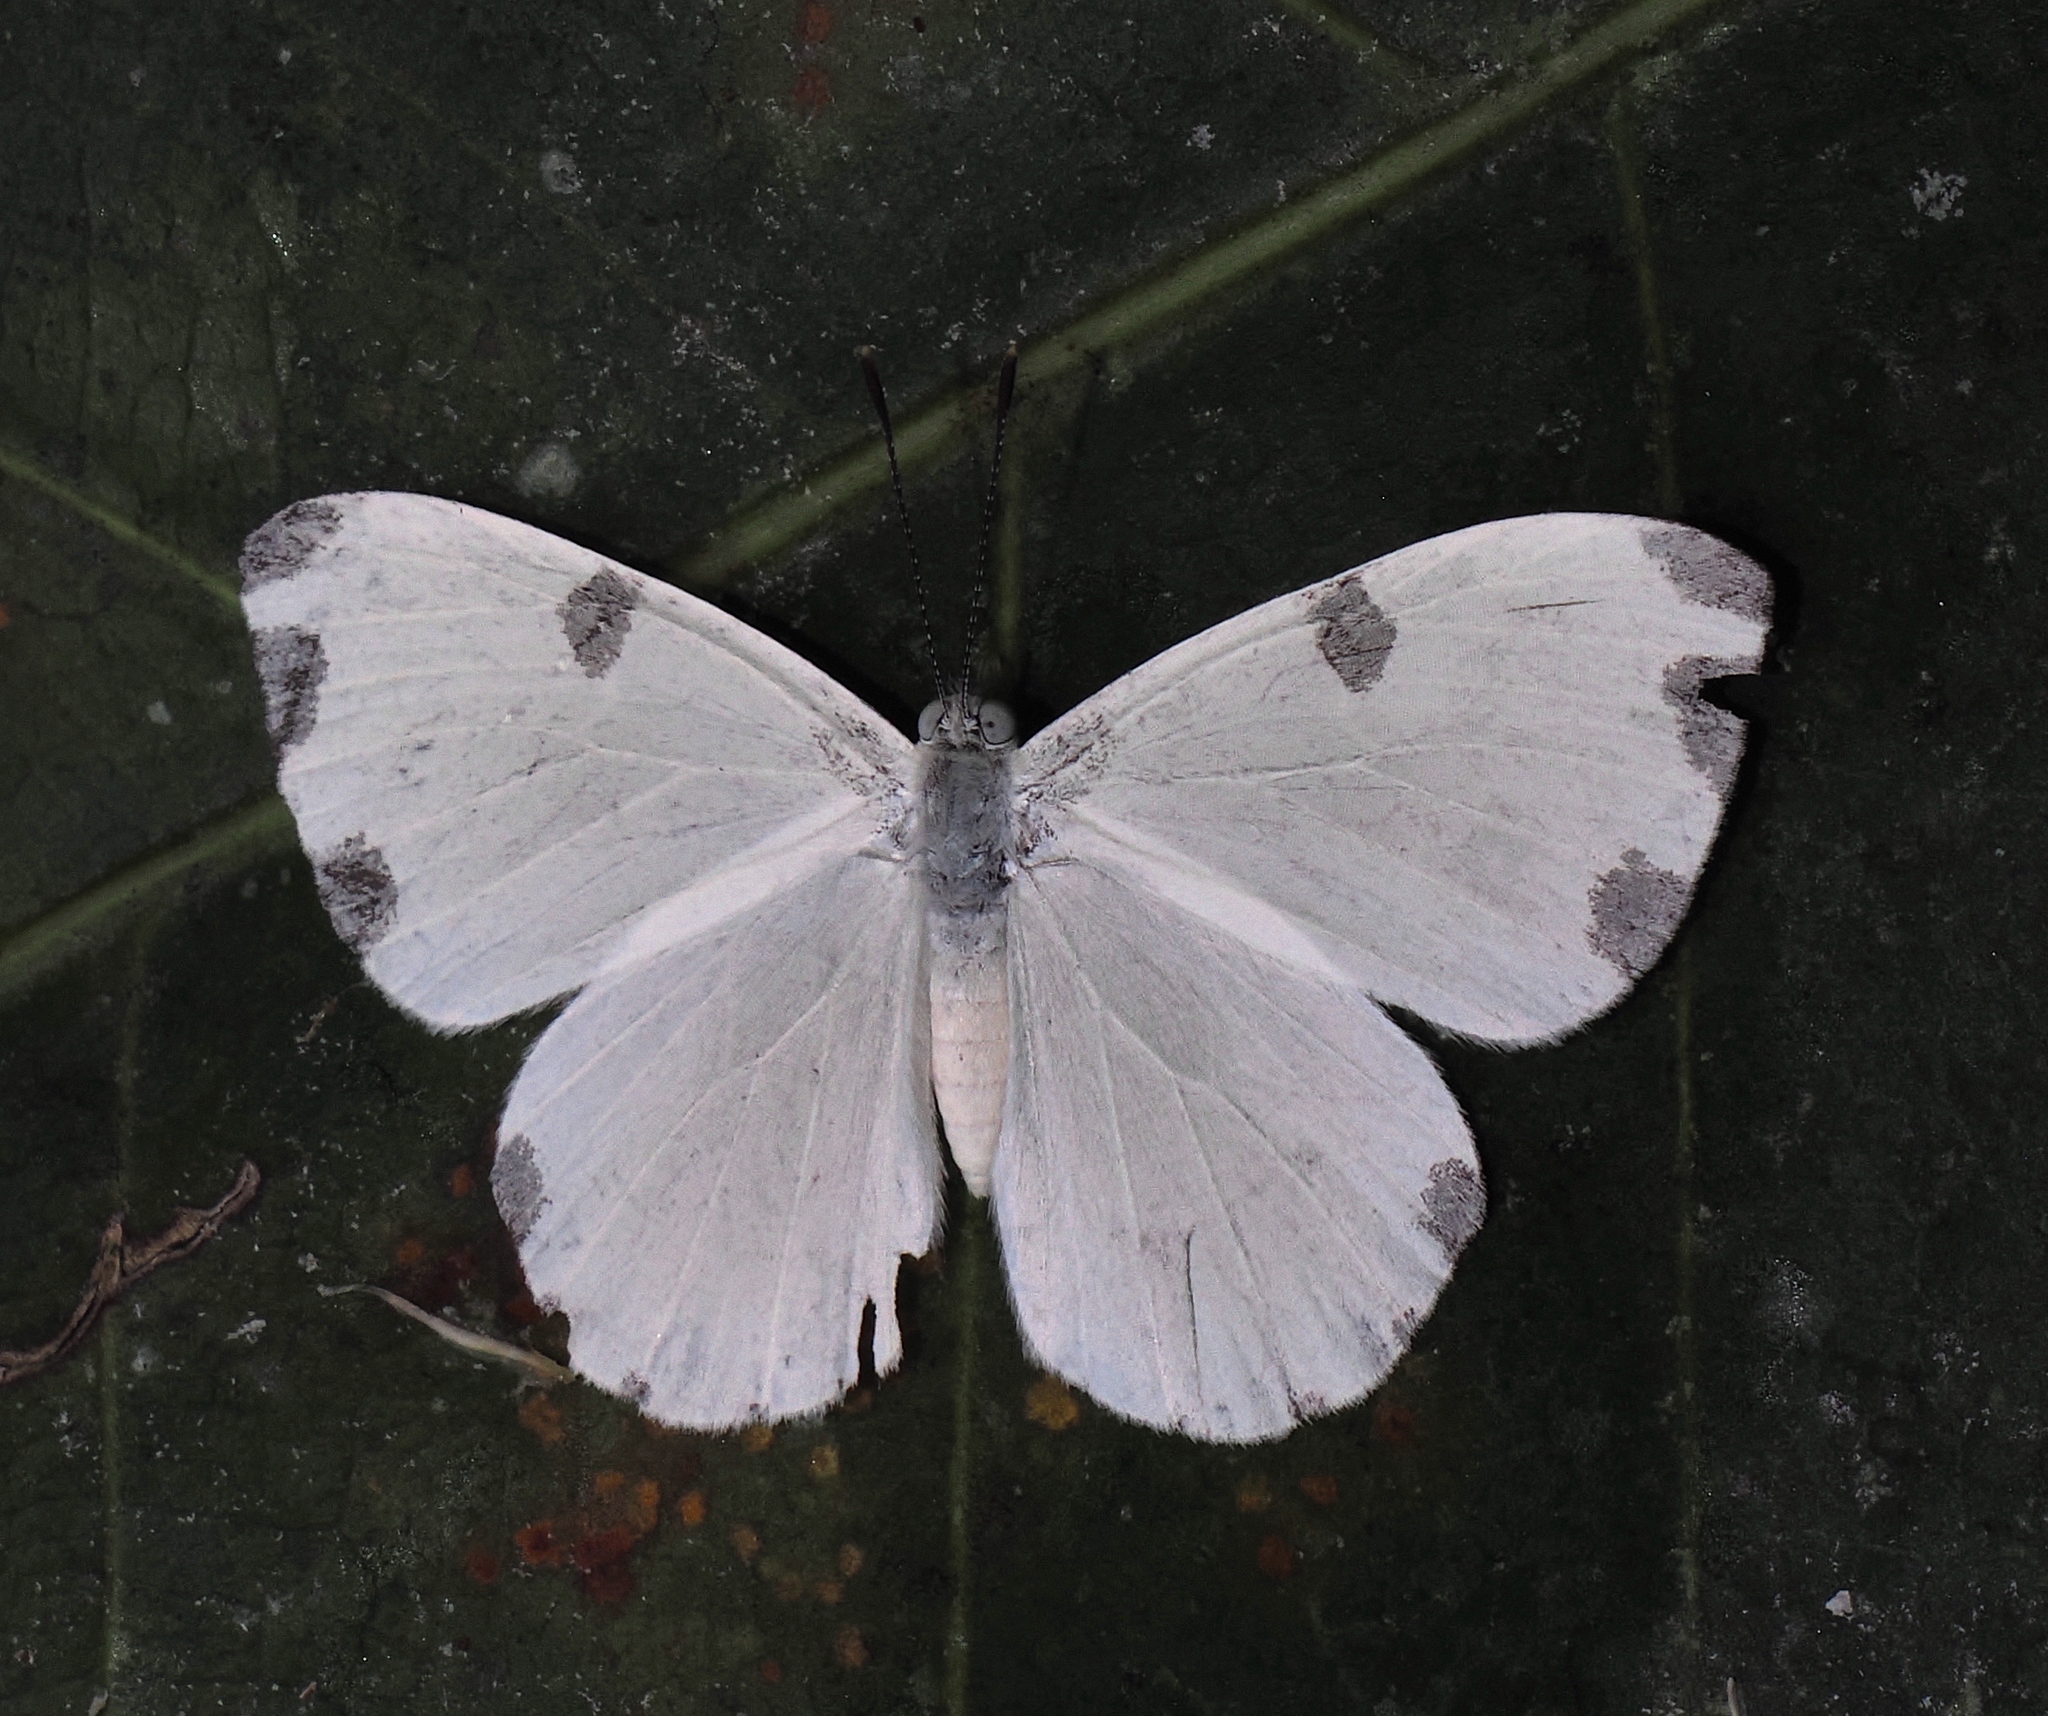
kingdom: Animalia
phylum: Arthropoda
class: Insecta
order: Lepidoptera
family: Riodinidae
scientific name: Riodinidae
